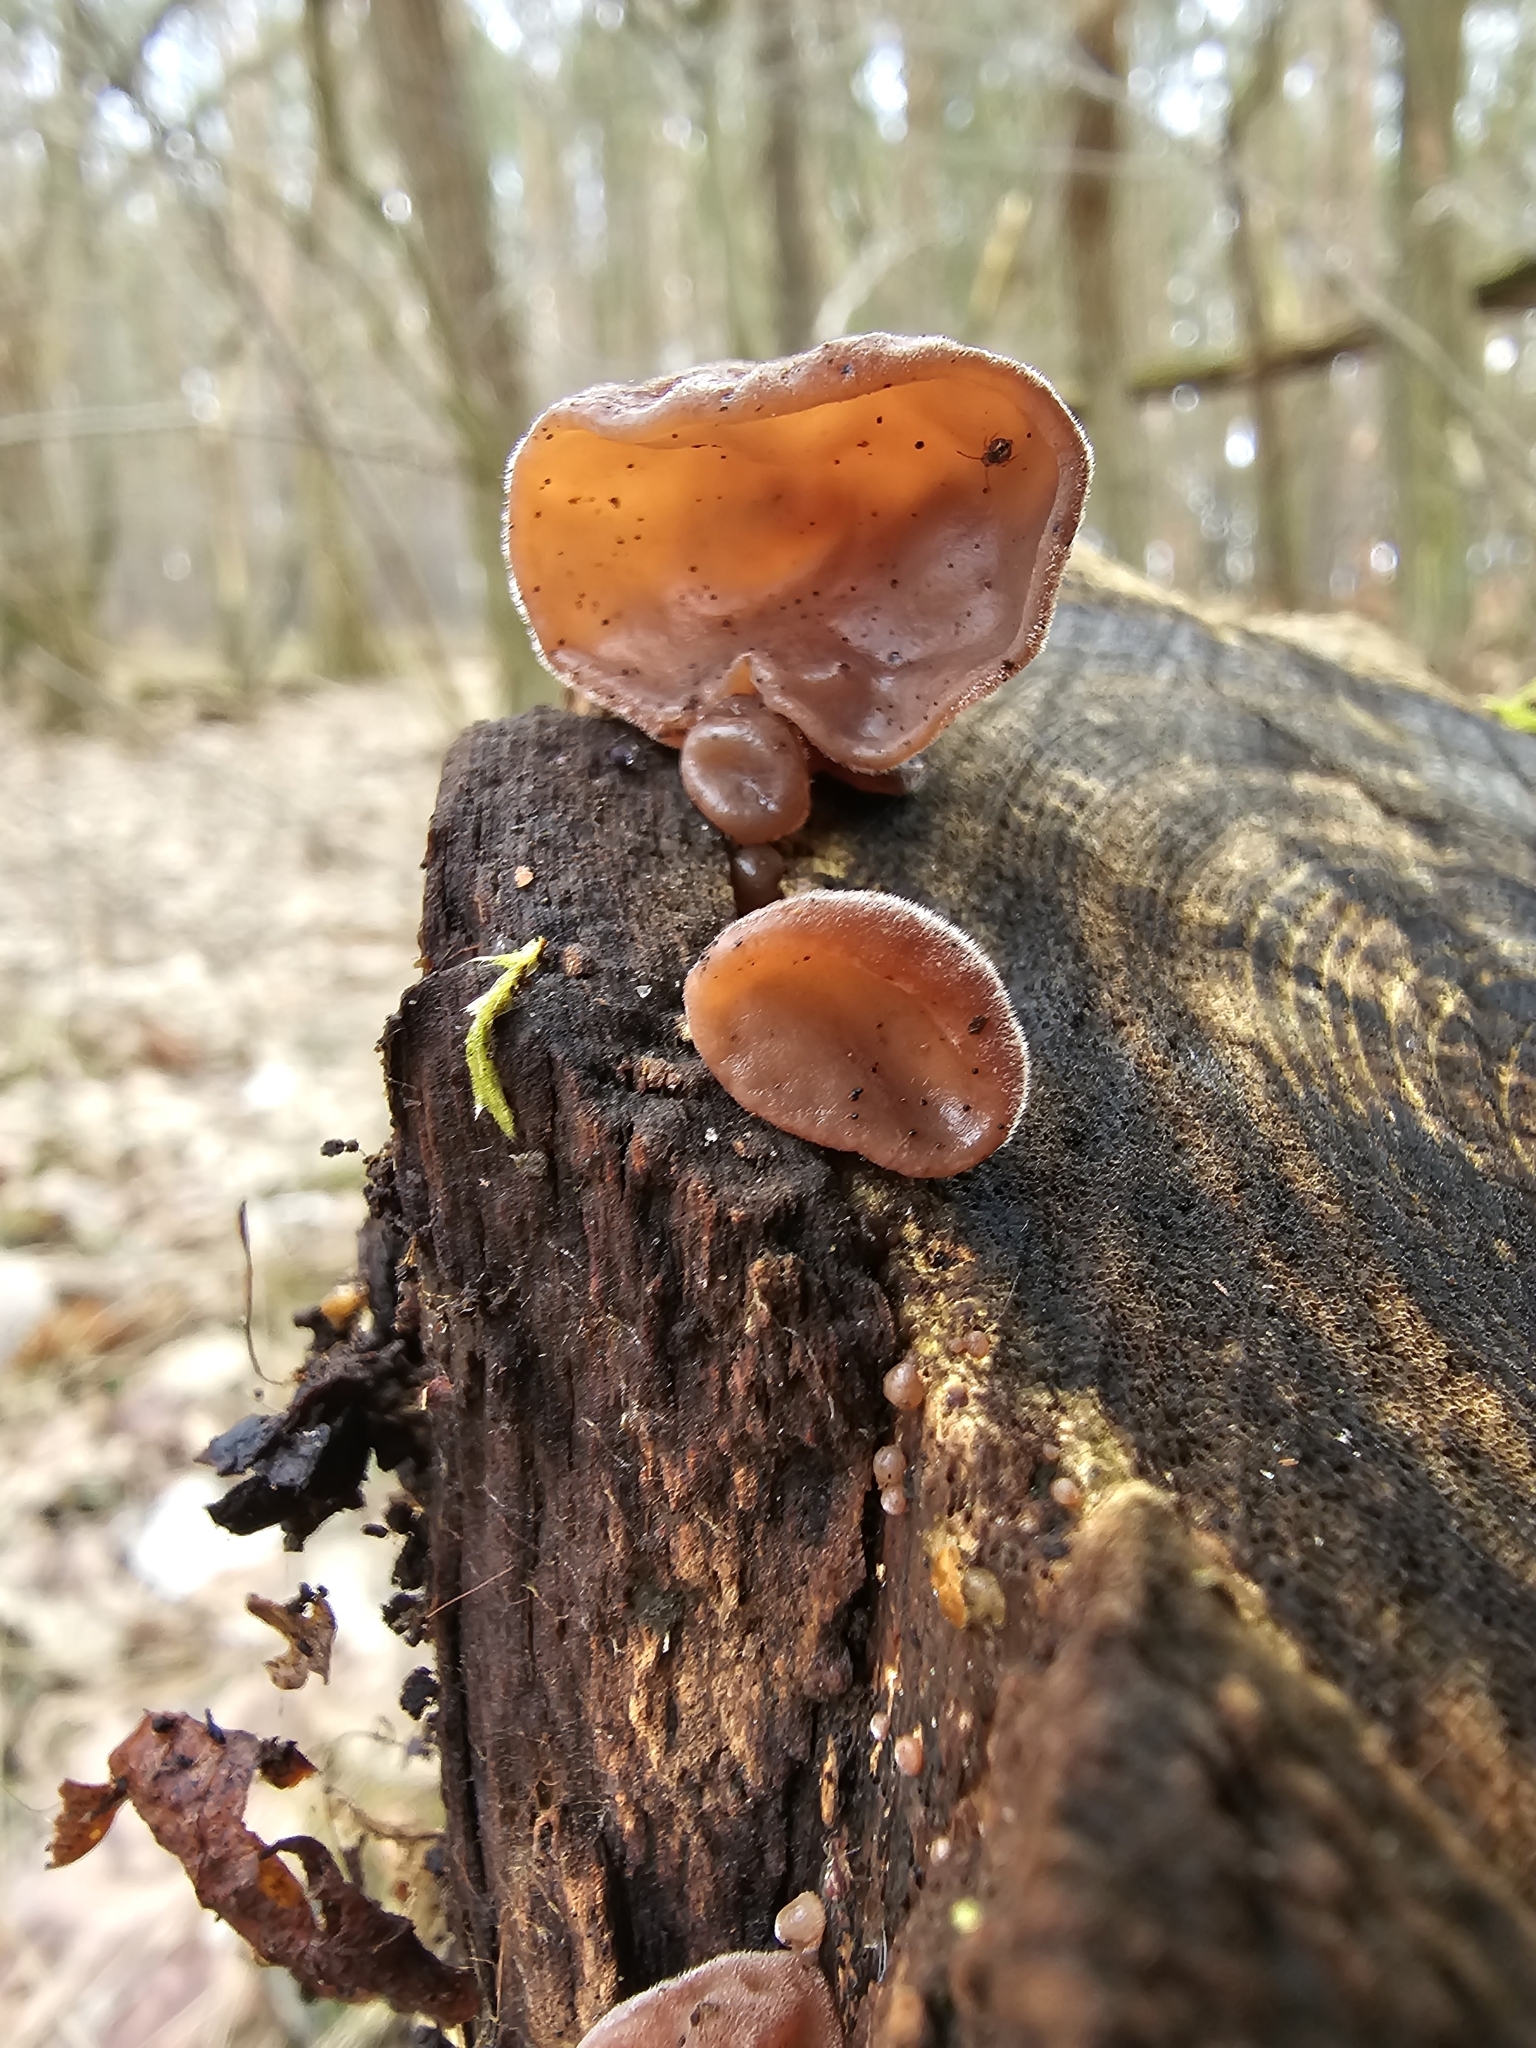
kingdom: Fungi
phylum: Basidiomycota
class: Agaricomycetes
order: Auriculariales
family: Auriculariaceae
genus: Auricularia
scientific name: Auricularia auricula-judae
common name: Jelly ear
